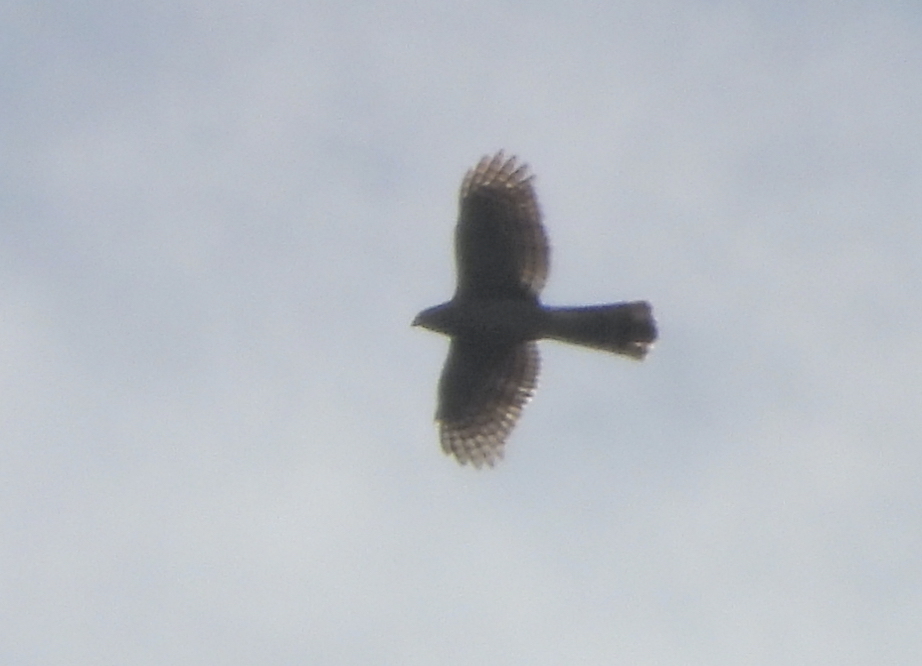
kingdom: Animalia
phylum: Chordata
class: Aves
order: Accipitriformes
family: Accipitridae
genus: Accipiter
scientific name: Accipiter cooperii
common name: Cooper's hawk
